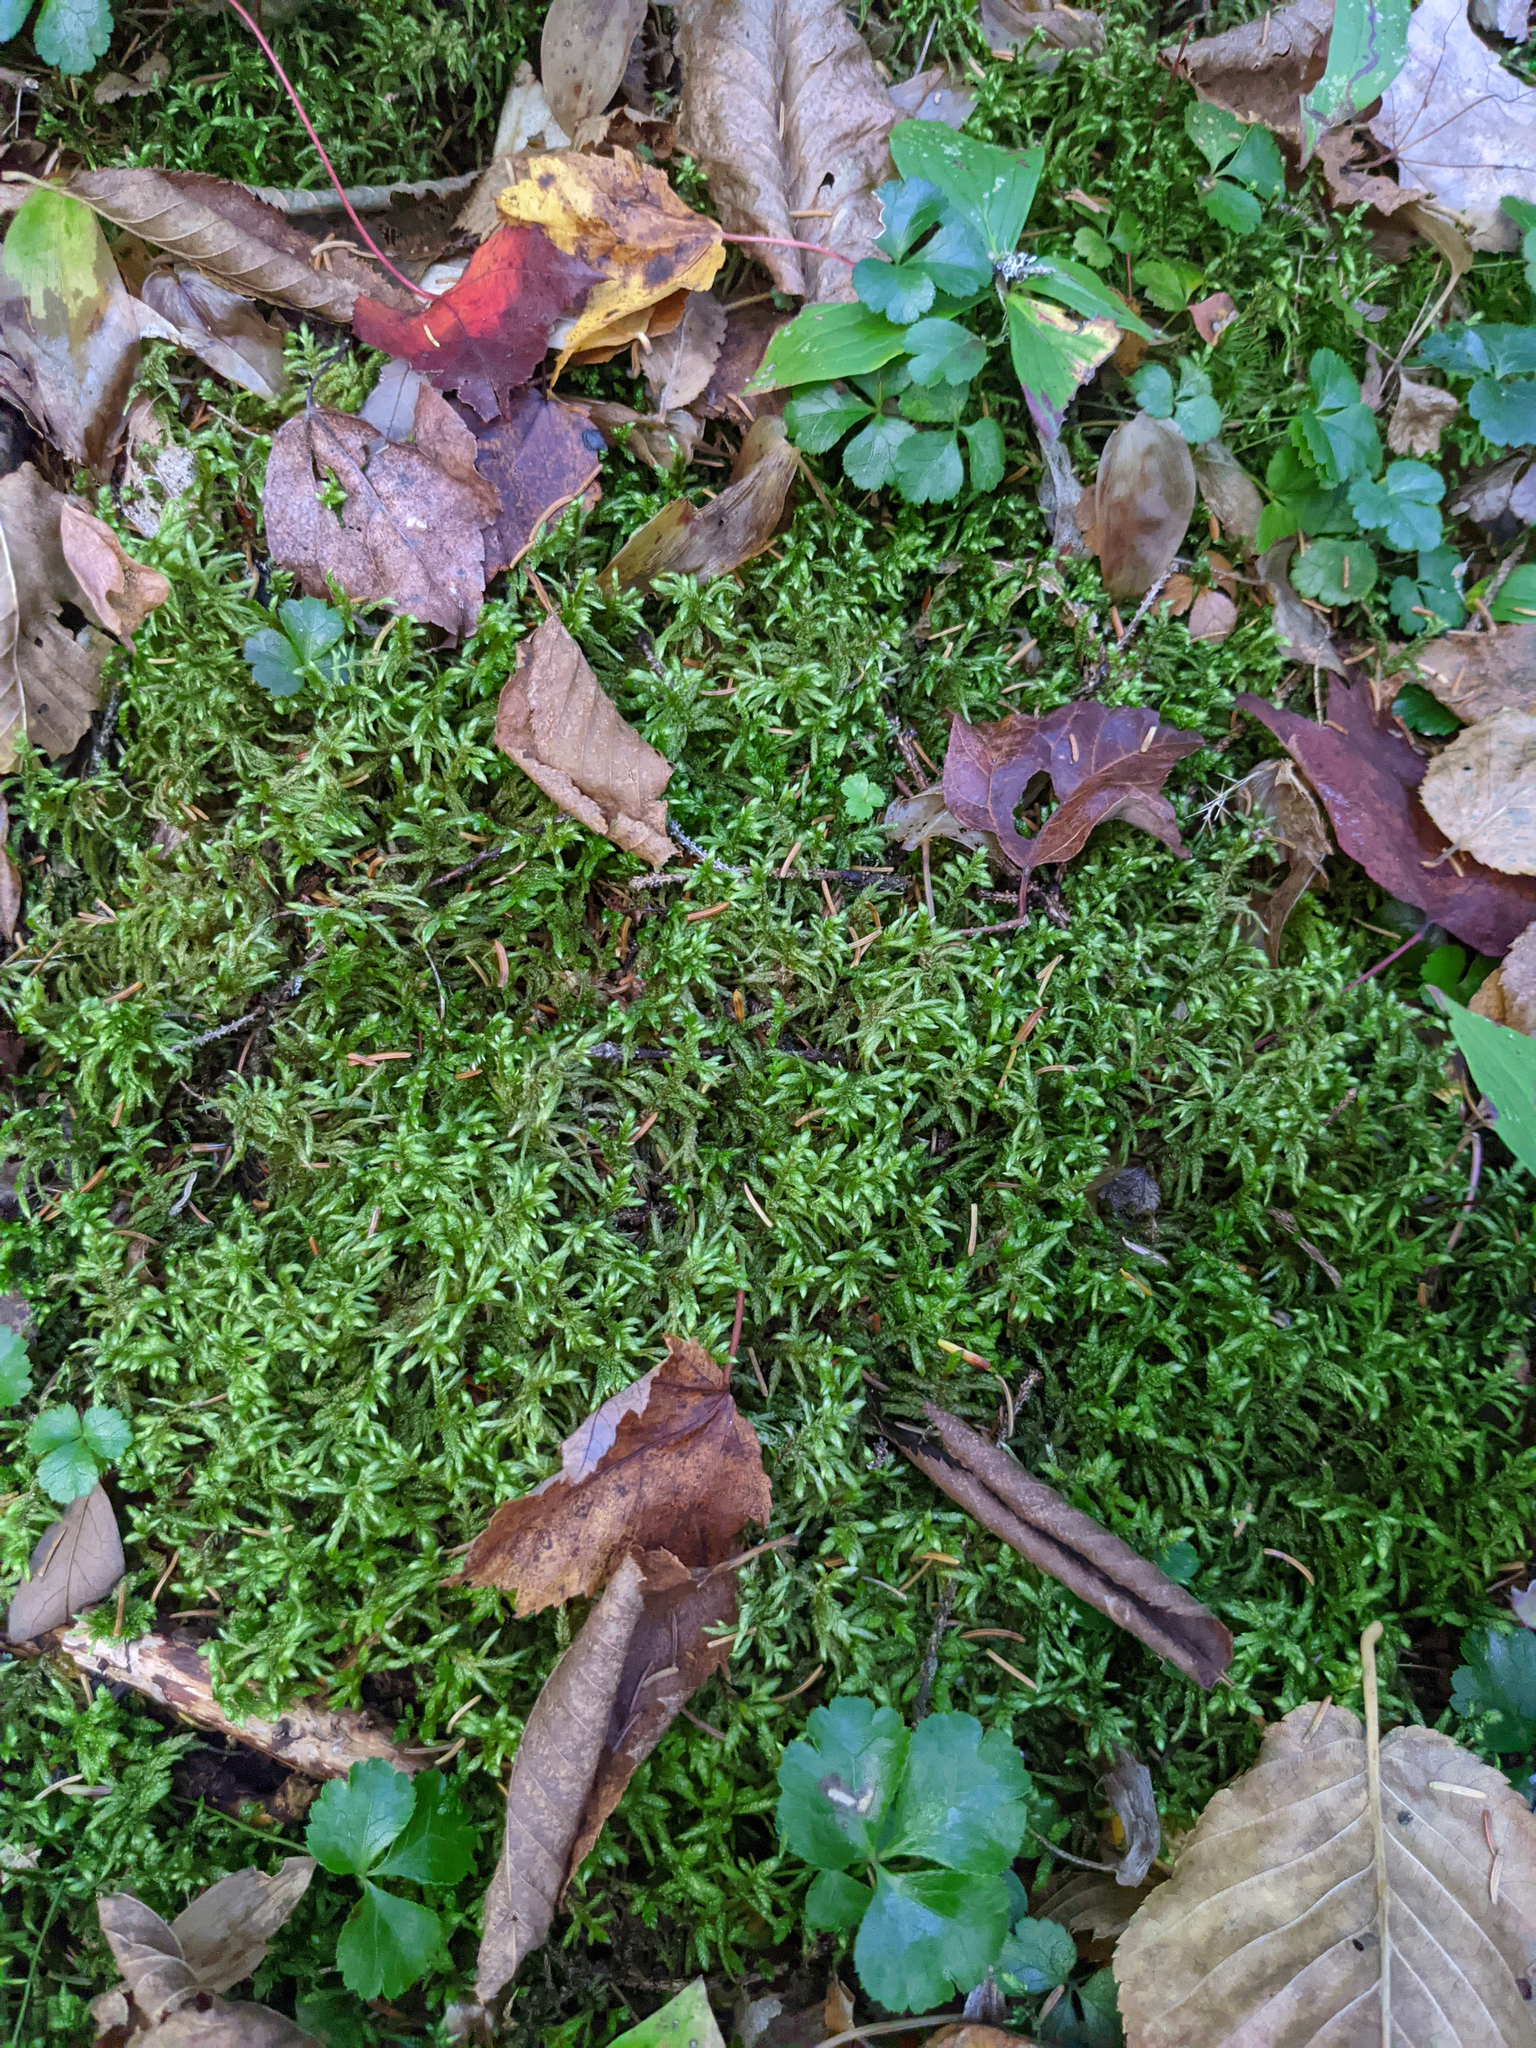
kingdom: Plantae
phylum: Tracheophyta
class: Magnoliopsida
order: Ranunculales
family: Ranunculaceae
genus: Coptis
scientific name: Coptis trifolia
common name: Canker-root
